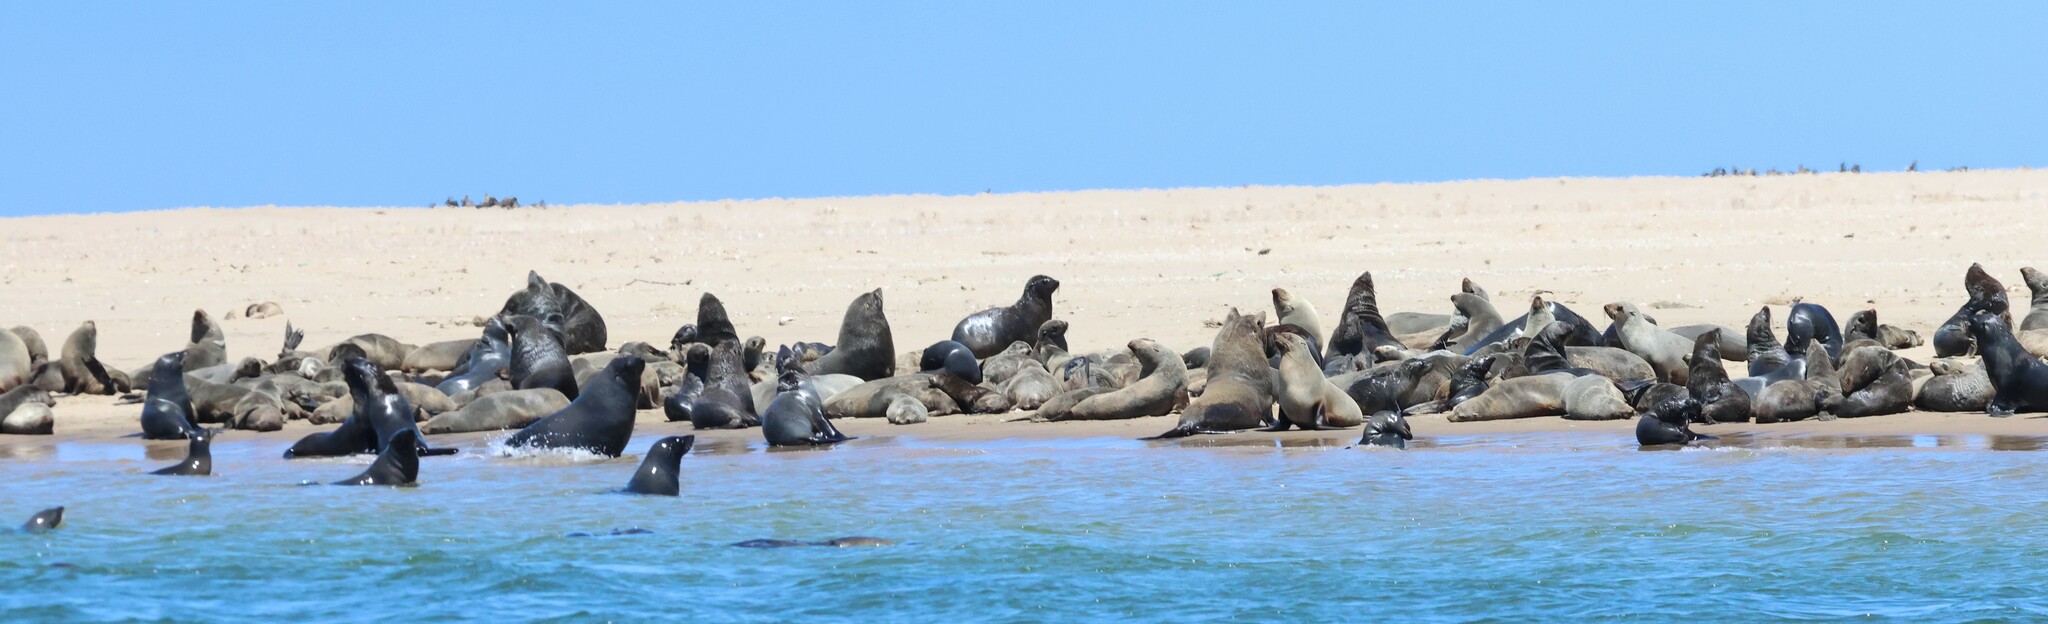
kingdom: Animalia
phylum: Chordata
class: Mammalia
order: Carnivora
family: Otariidae
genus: Arctocephalus
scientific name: Arctocephalus pusillus
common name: Brown fur seal
